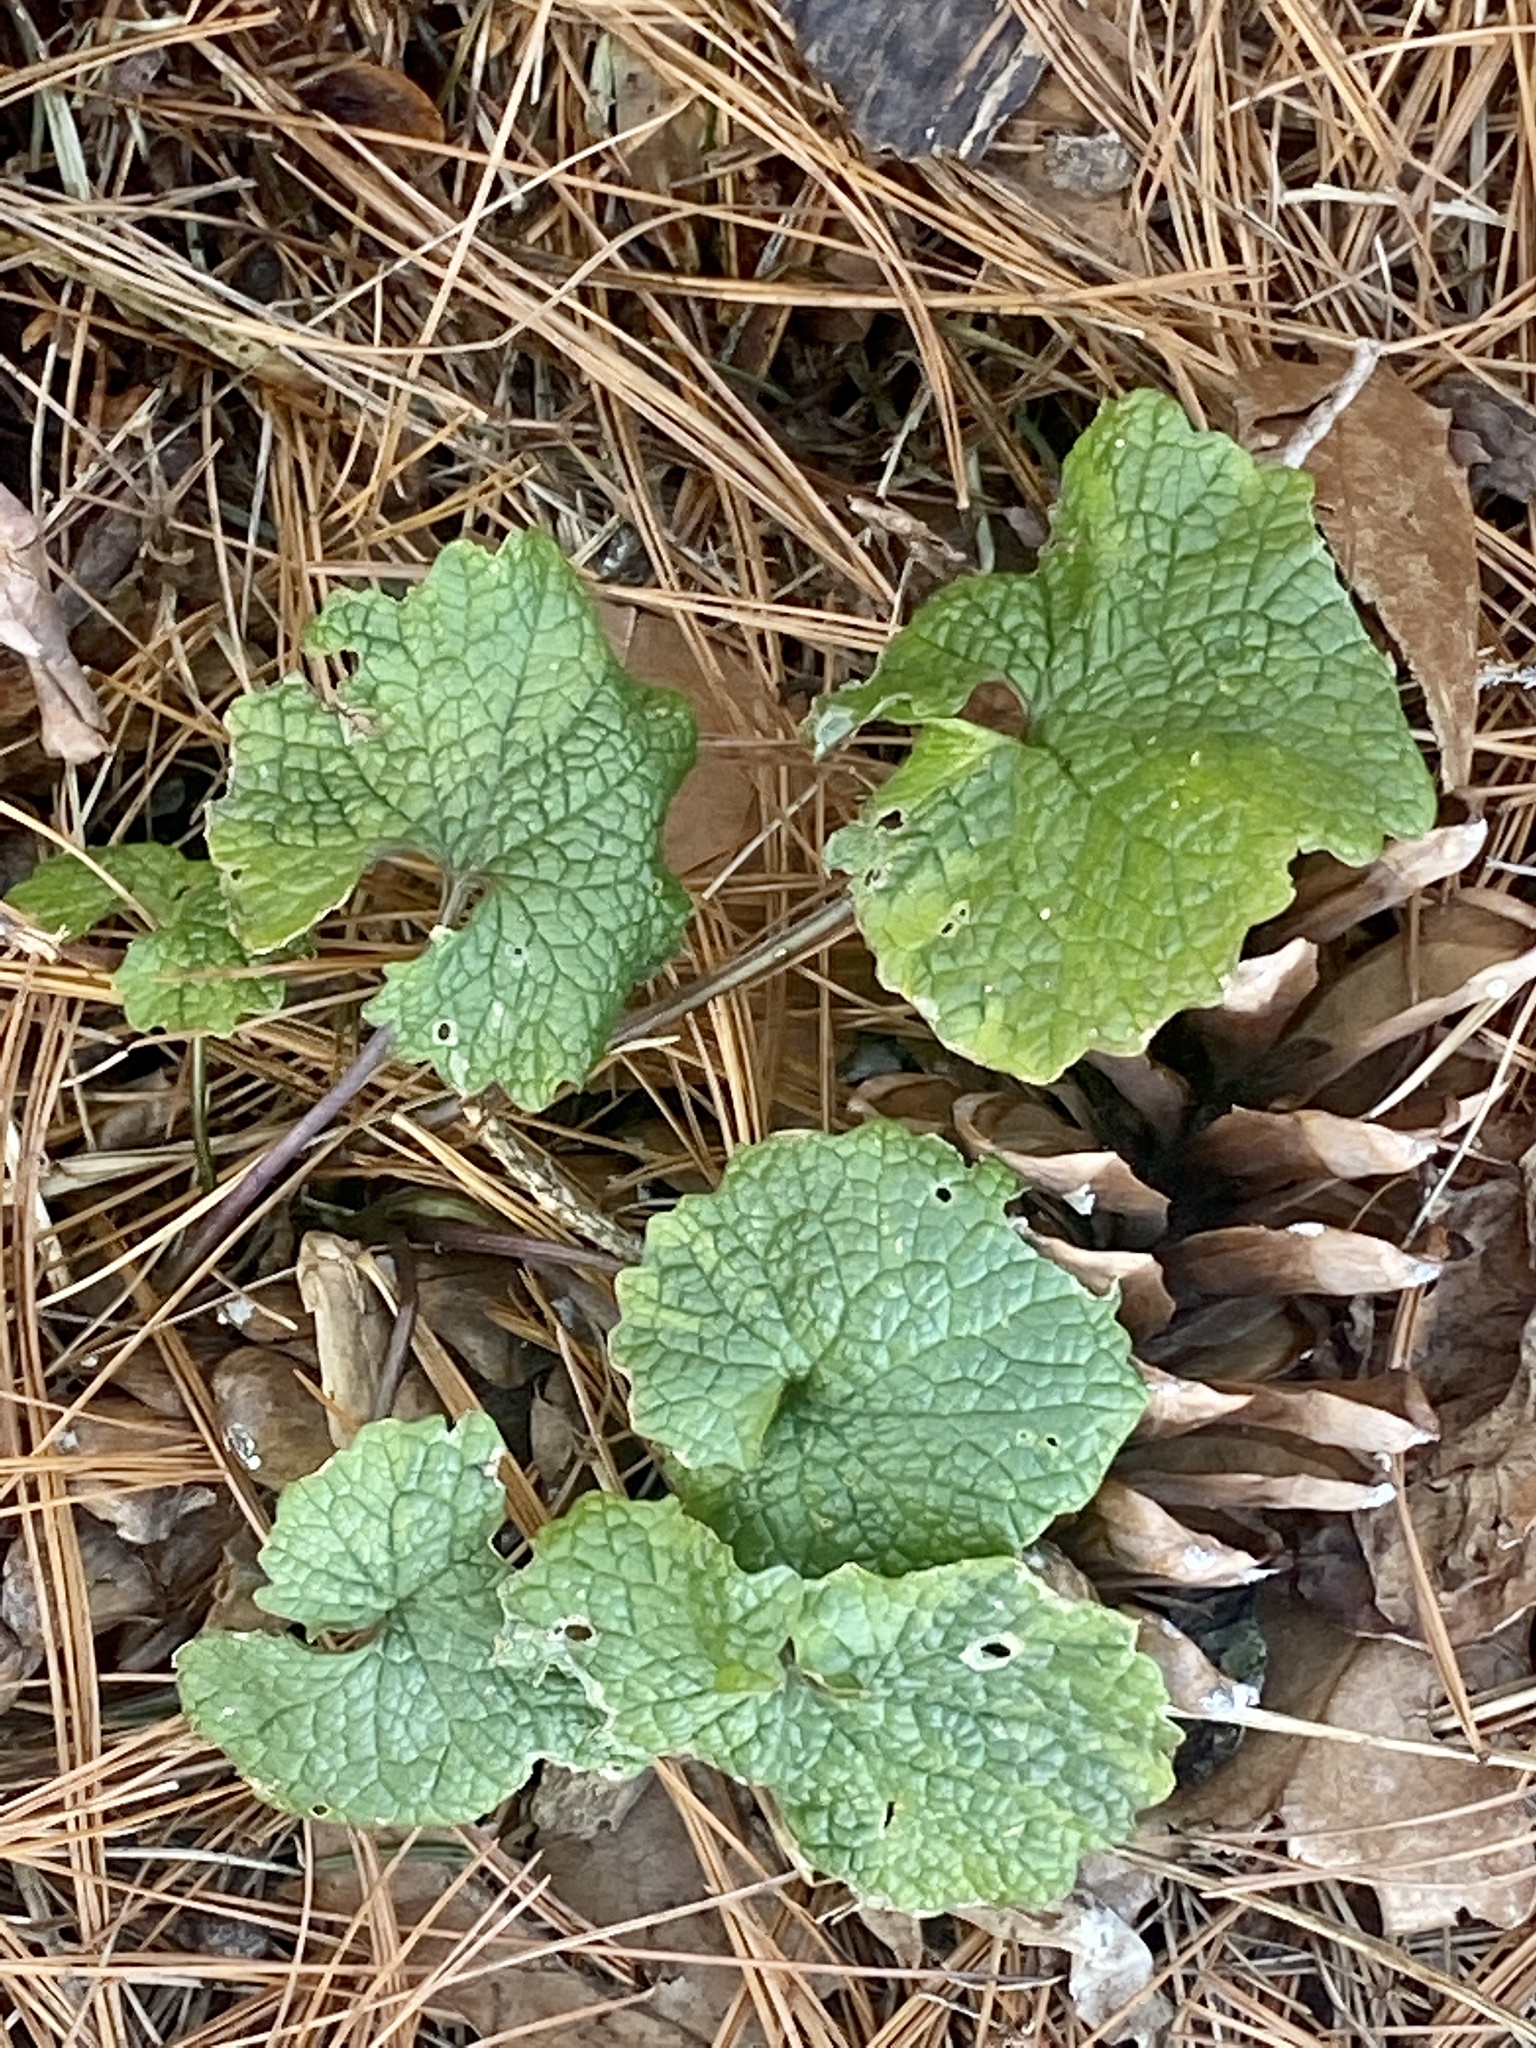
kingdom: Plantae
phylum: Tracheophyta
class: Magnoliopsida
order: Brassicales
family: Brassicaceae
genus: Alliaria
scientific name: Alliaria petiolata
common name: Garlic mustard
